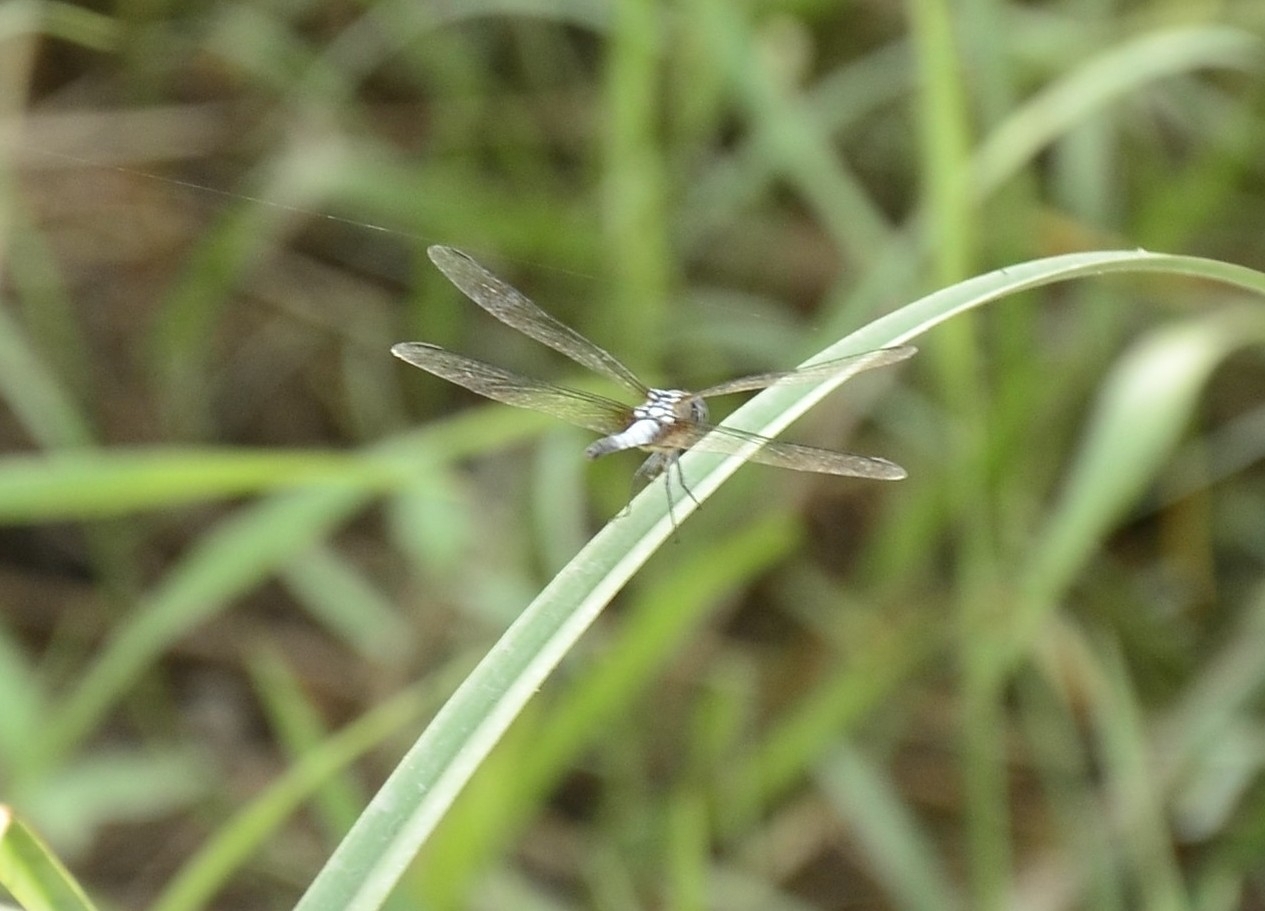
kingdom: Animalia
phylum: Arthropoda
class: Insecta
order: Odonata
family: Libellulidae
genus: Brachydiplax
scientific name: Brachydiplax chalybea
